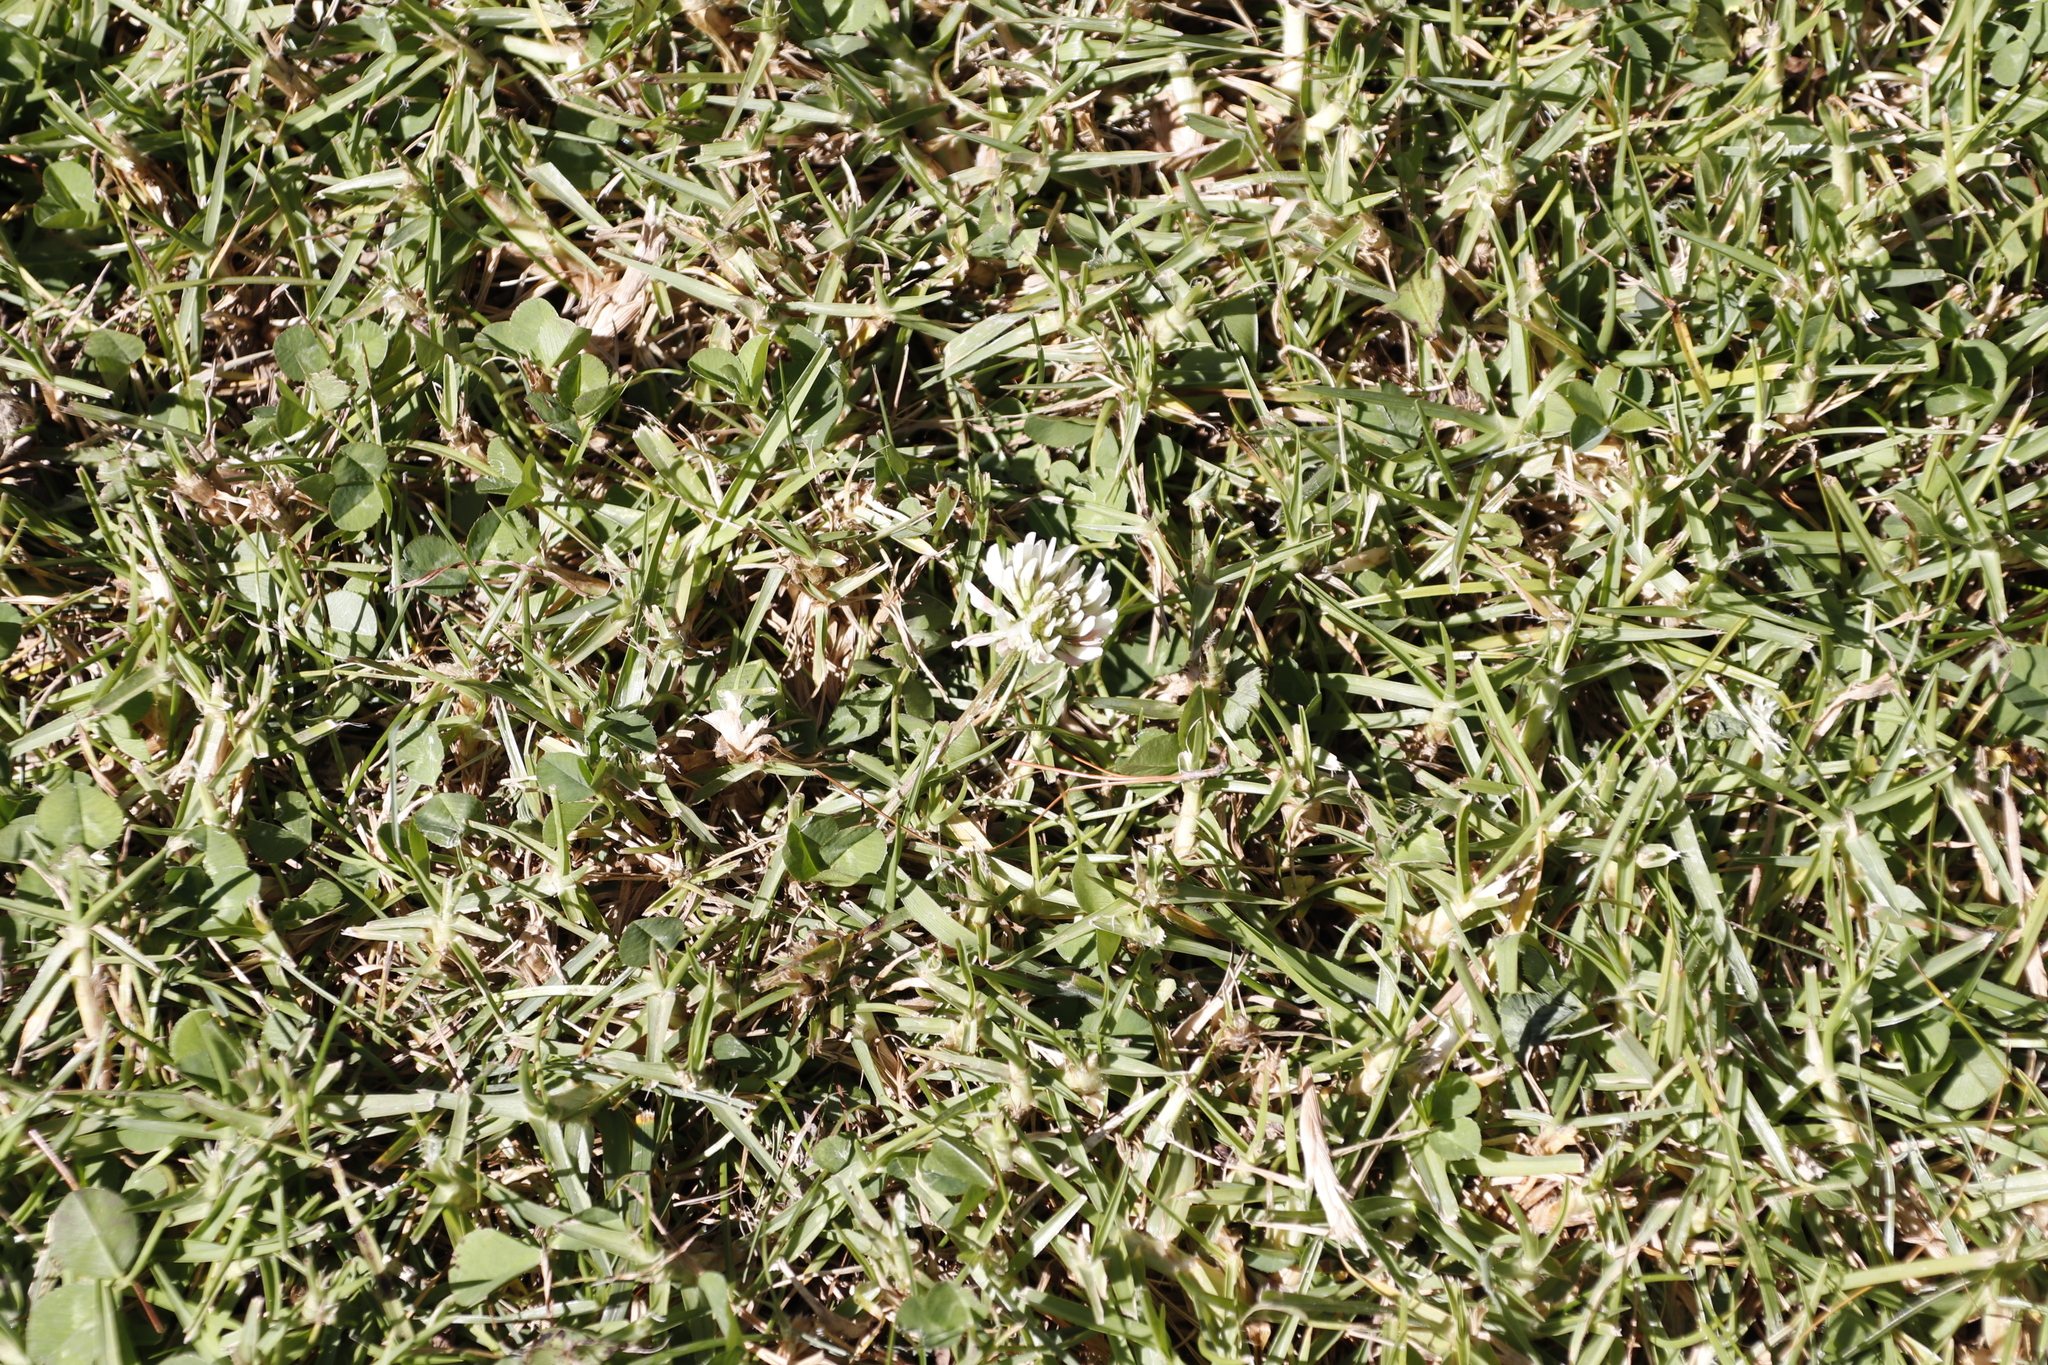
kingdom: Plantae
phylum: Tracheophyta
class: Magnoliopsida
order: Fabales
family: Fabaceae
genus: Trifolium
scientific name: Trifolium repens
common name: White clover
